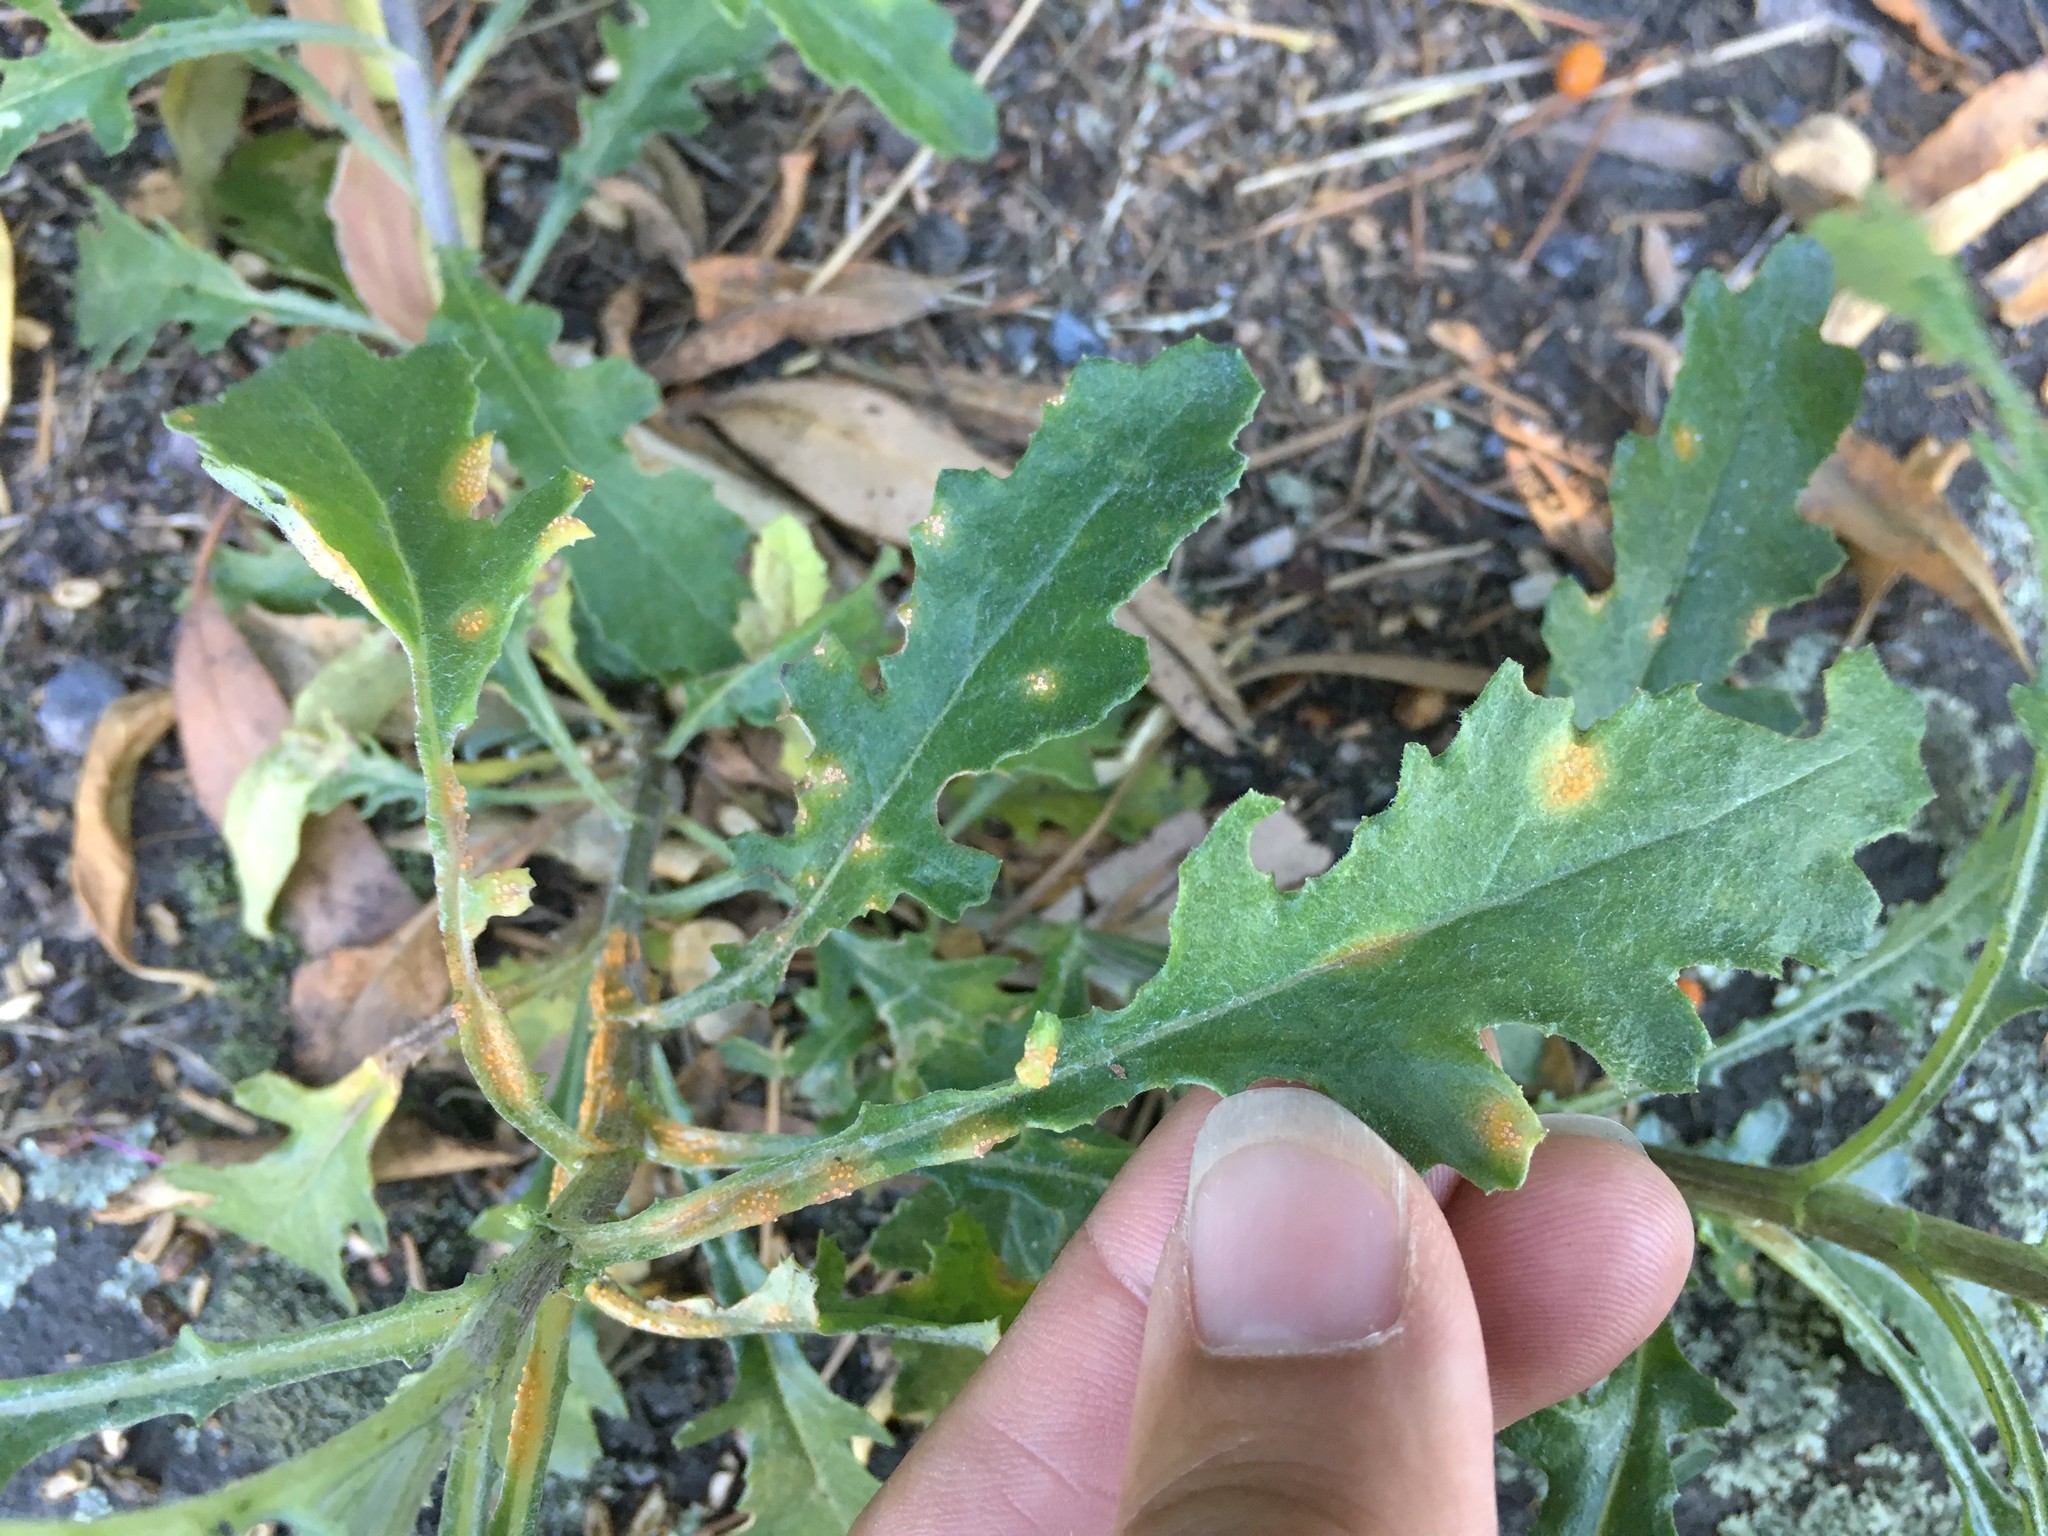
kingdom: Fungi
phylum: Basidiomycota
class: Pucciniomycetes
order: Pucciniales
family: Pucciniaceae
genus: Puccinia
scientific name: Puccinia lagenophorae
